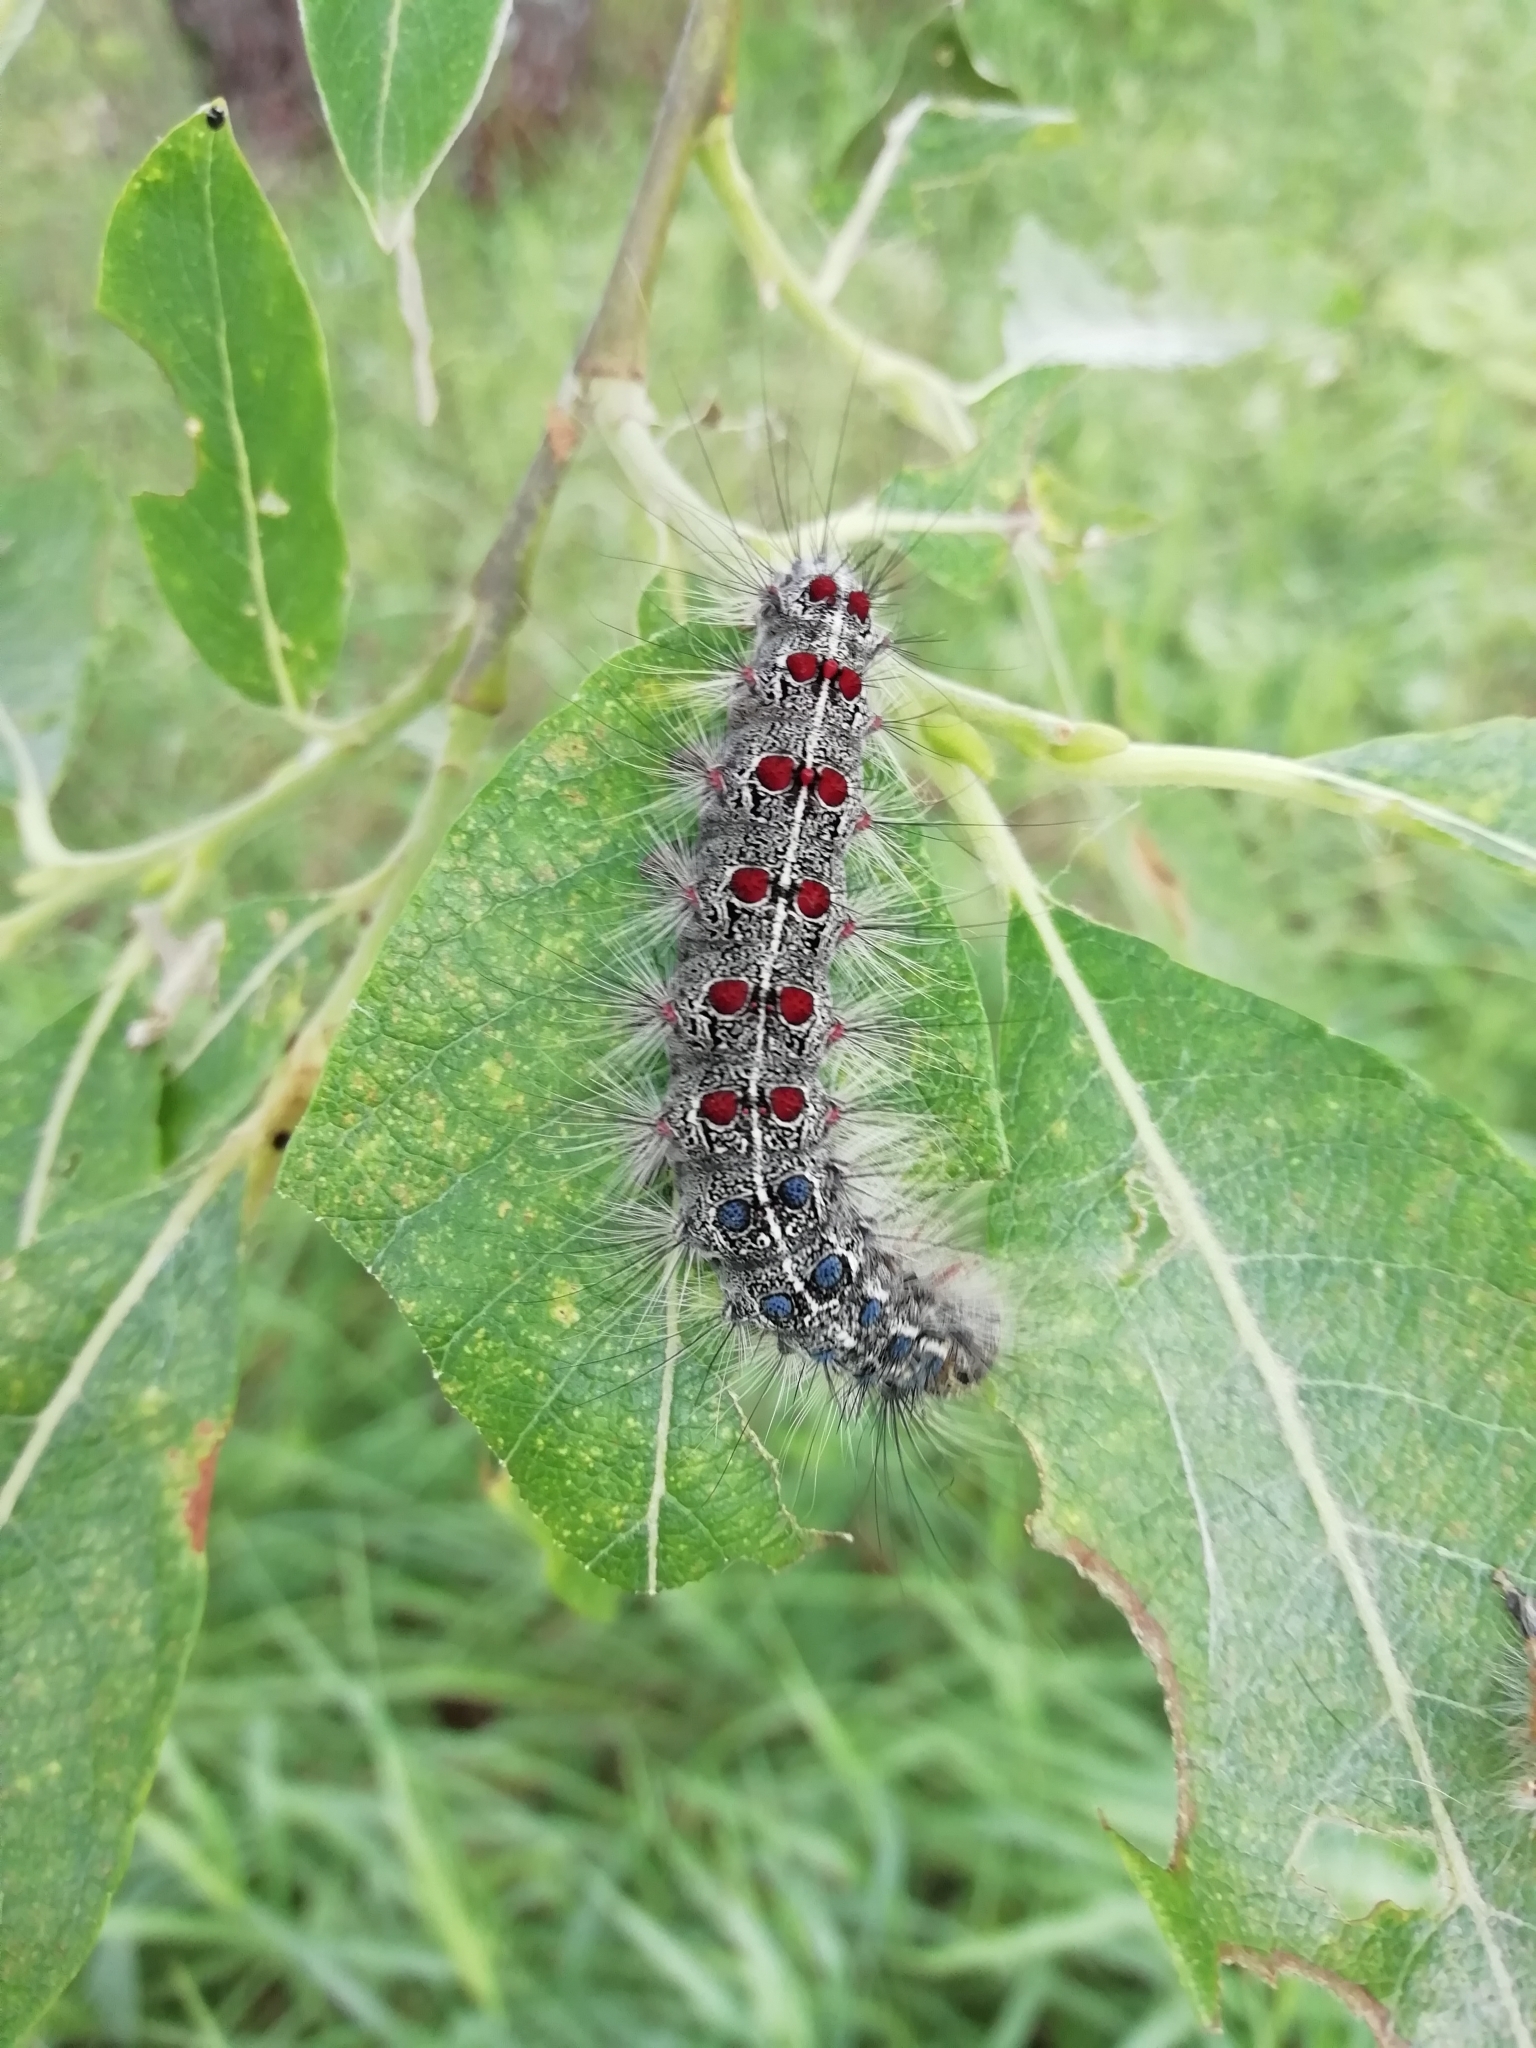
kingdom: Animalia
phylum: Arthropoda
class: Insecta
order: Lepidoptera
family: Erebidae
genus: Lymantria
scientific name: Lymantria dispar
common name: Gypsy moth
